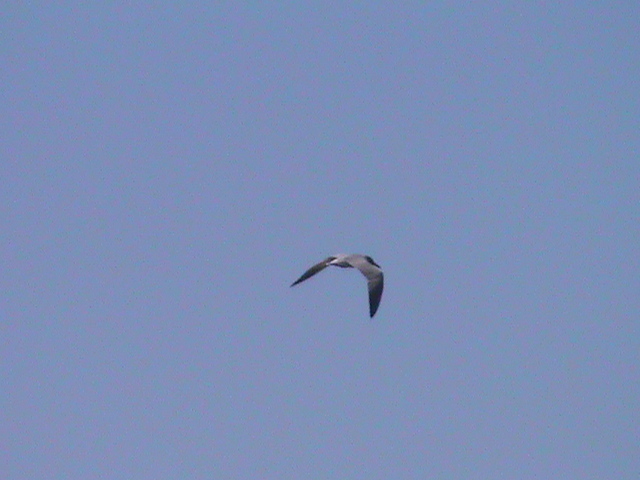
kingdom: Animalia
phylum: Chordata
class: Aves
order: Charadriiformes
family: Laridae
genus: Chlidonias
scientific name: Chlidonias hybrida
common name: Whiskered tern
